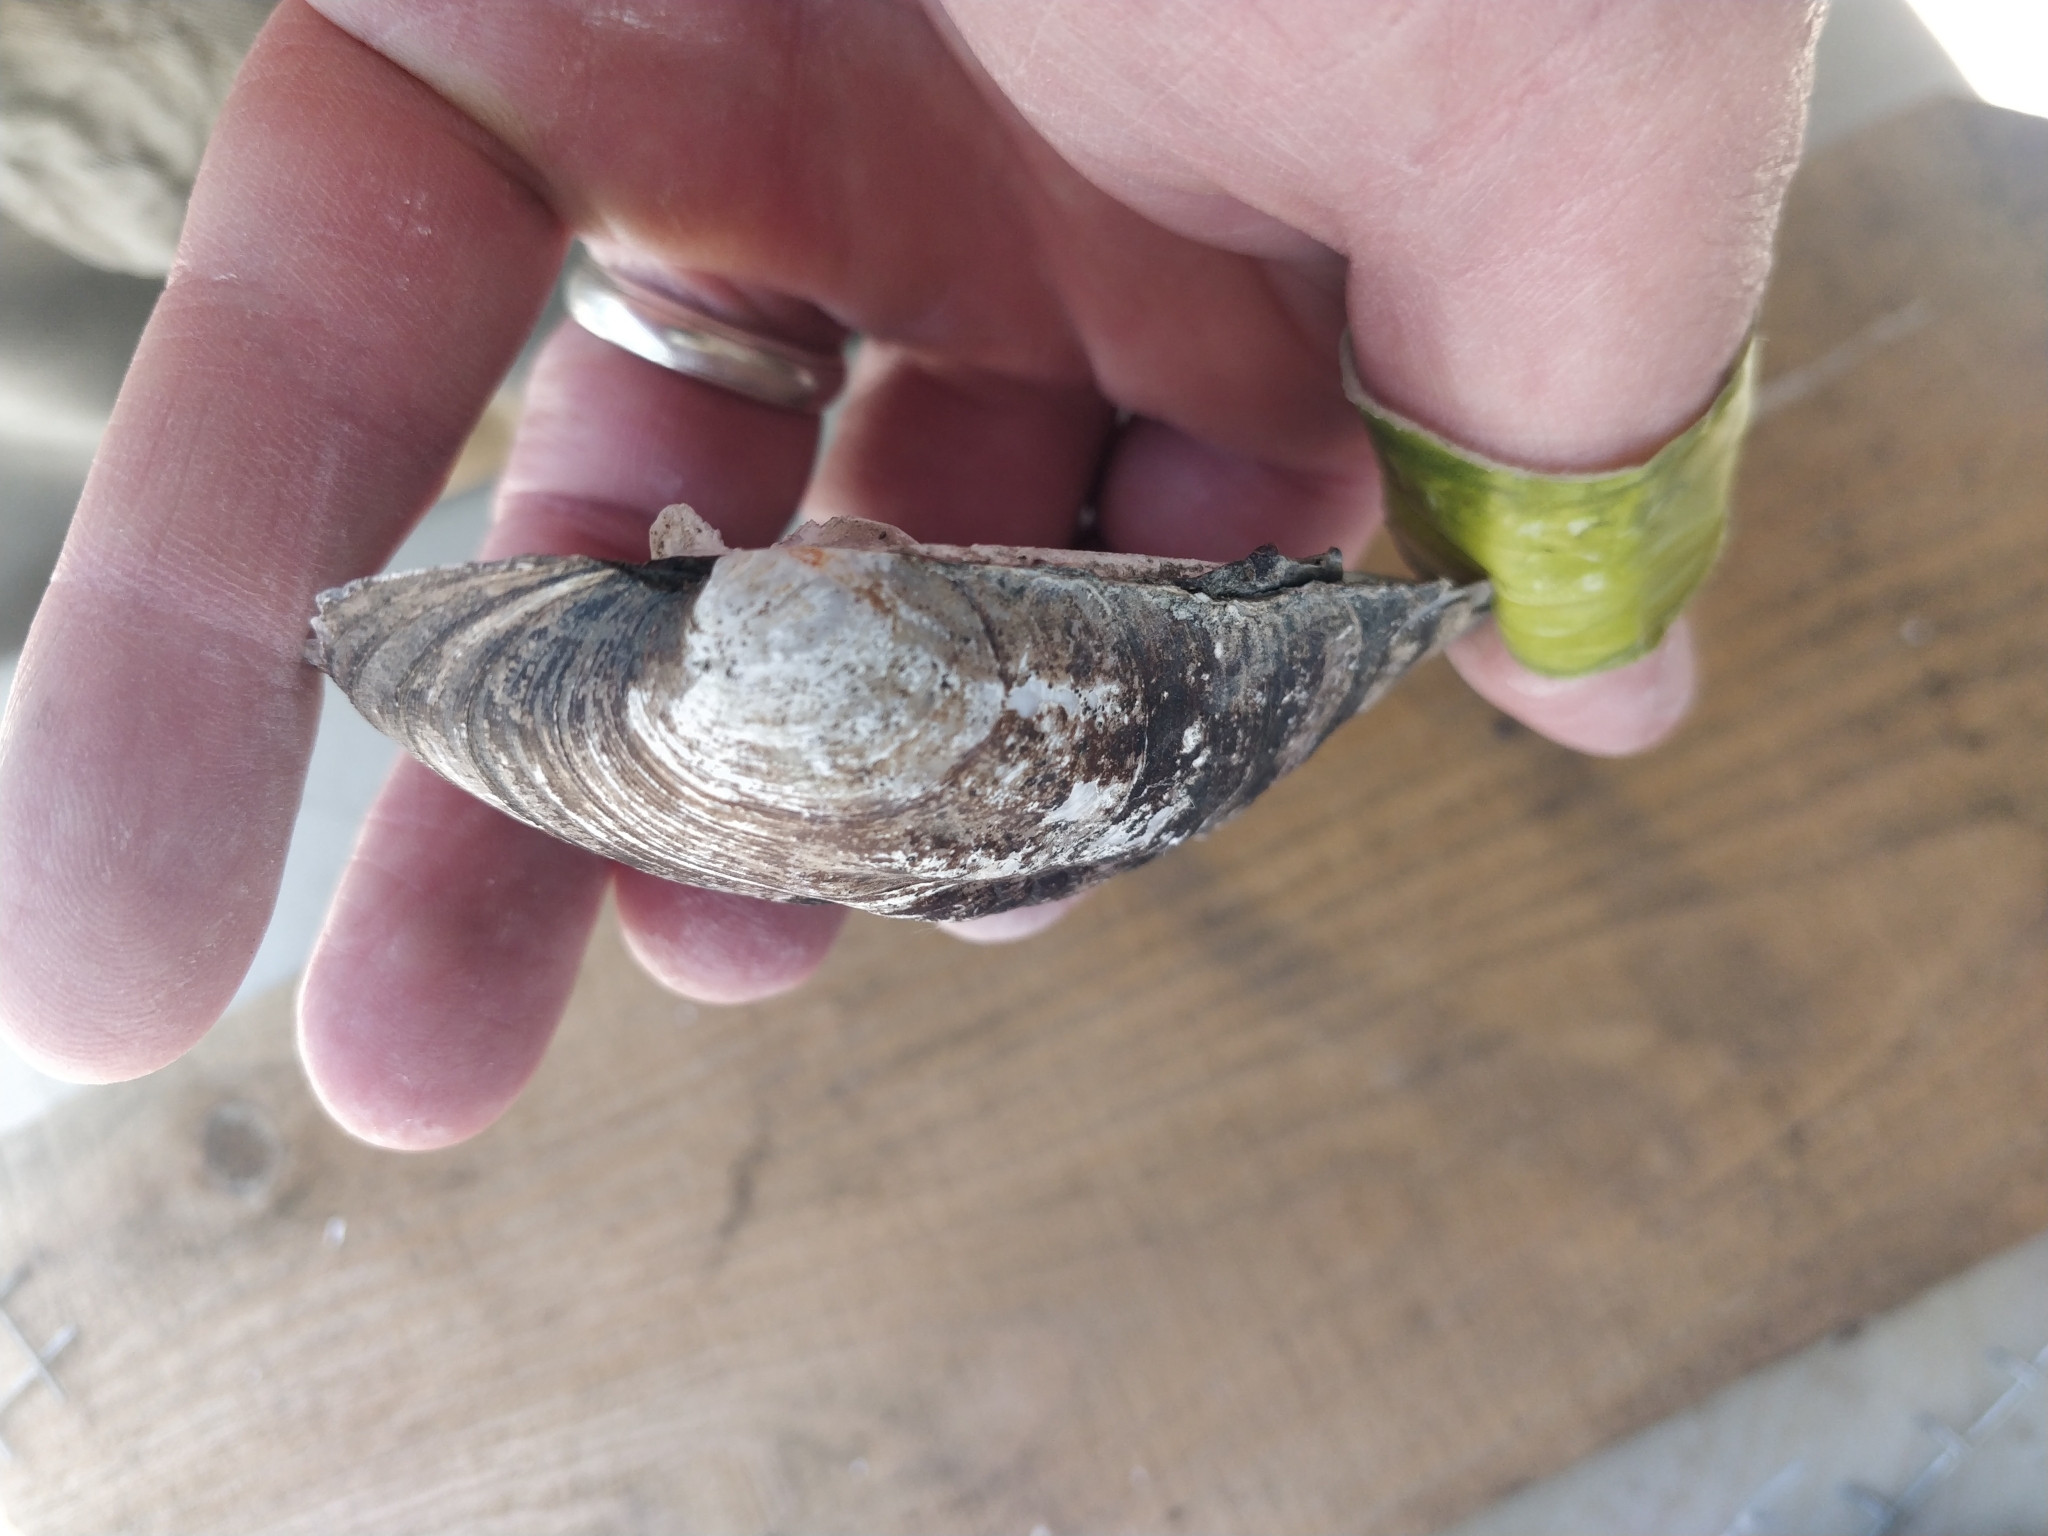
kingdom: Animalia
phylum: Mollusca
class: Bivalvia
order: Unionida
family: Unionidae
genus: Amblema
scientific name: Amblema plicata
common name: Threeridge
